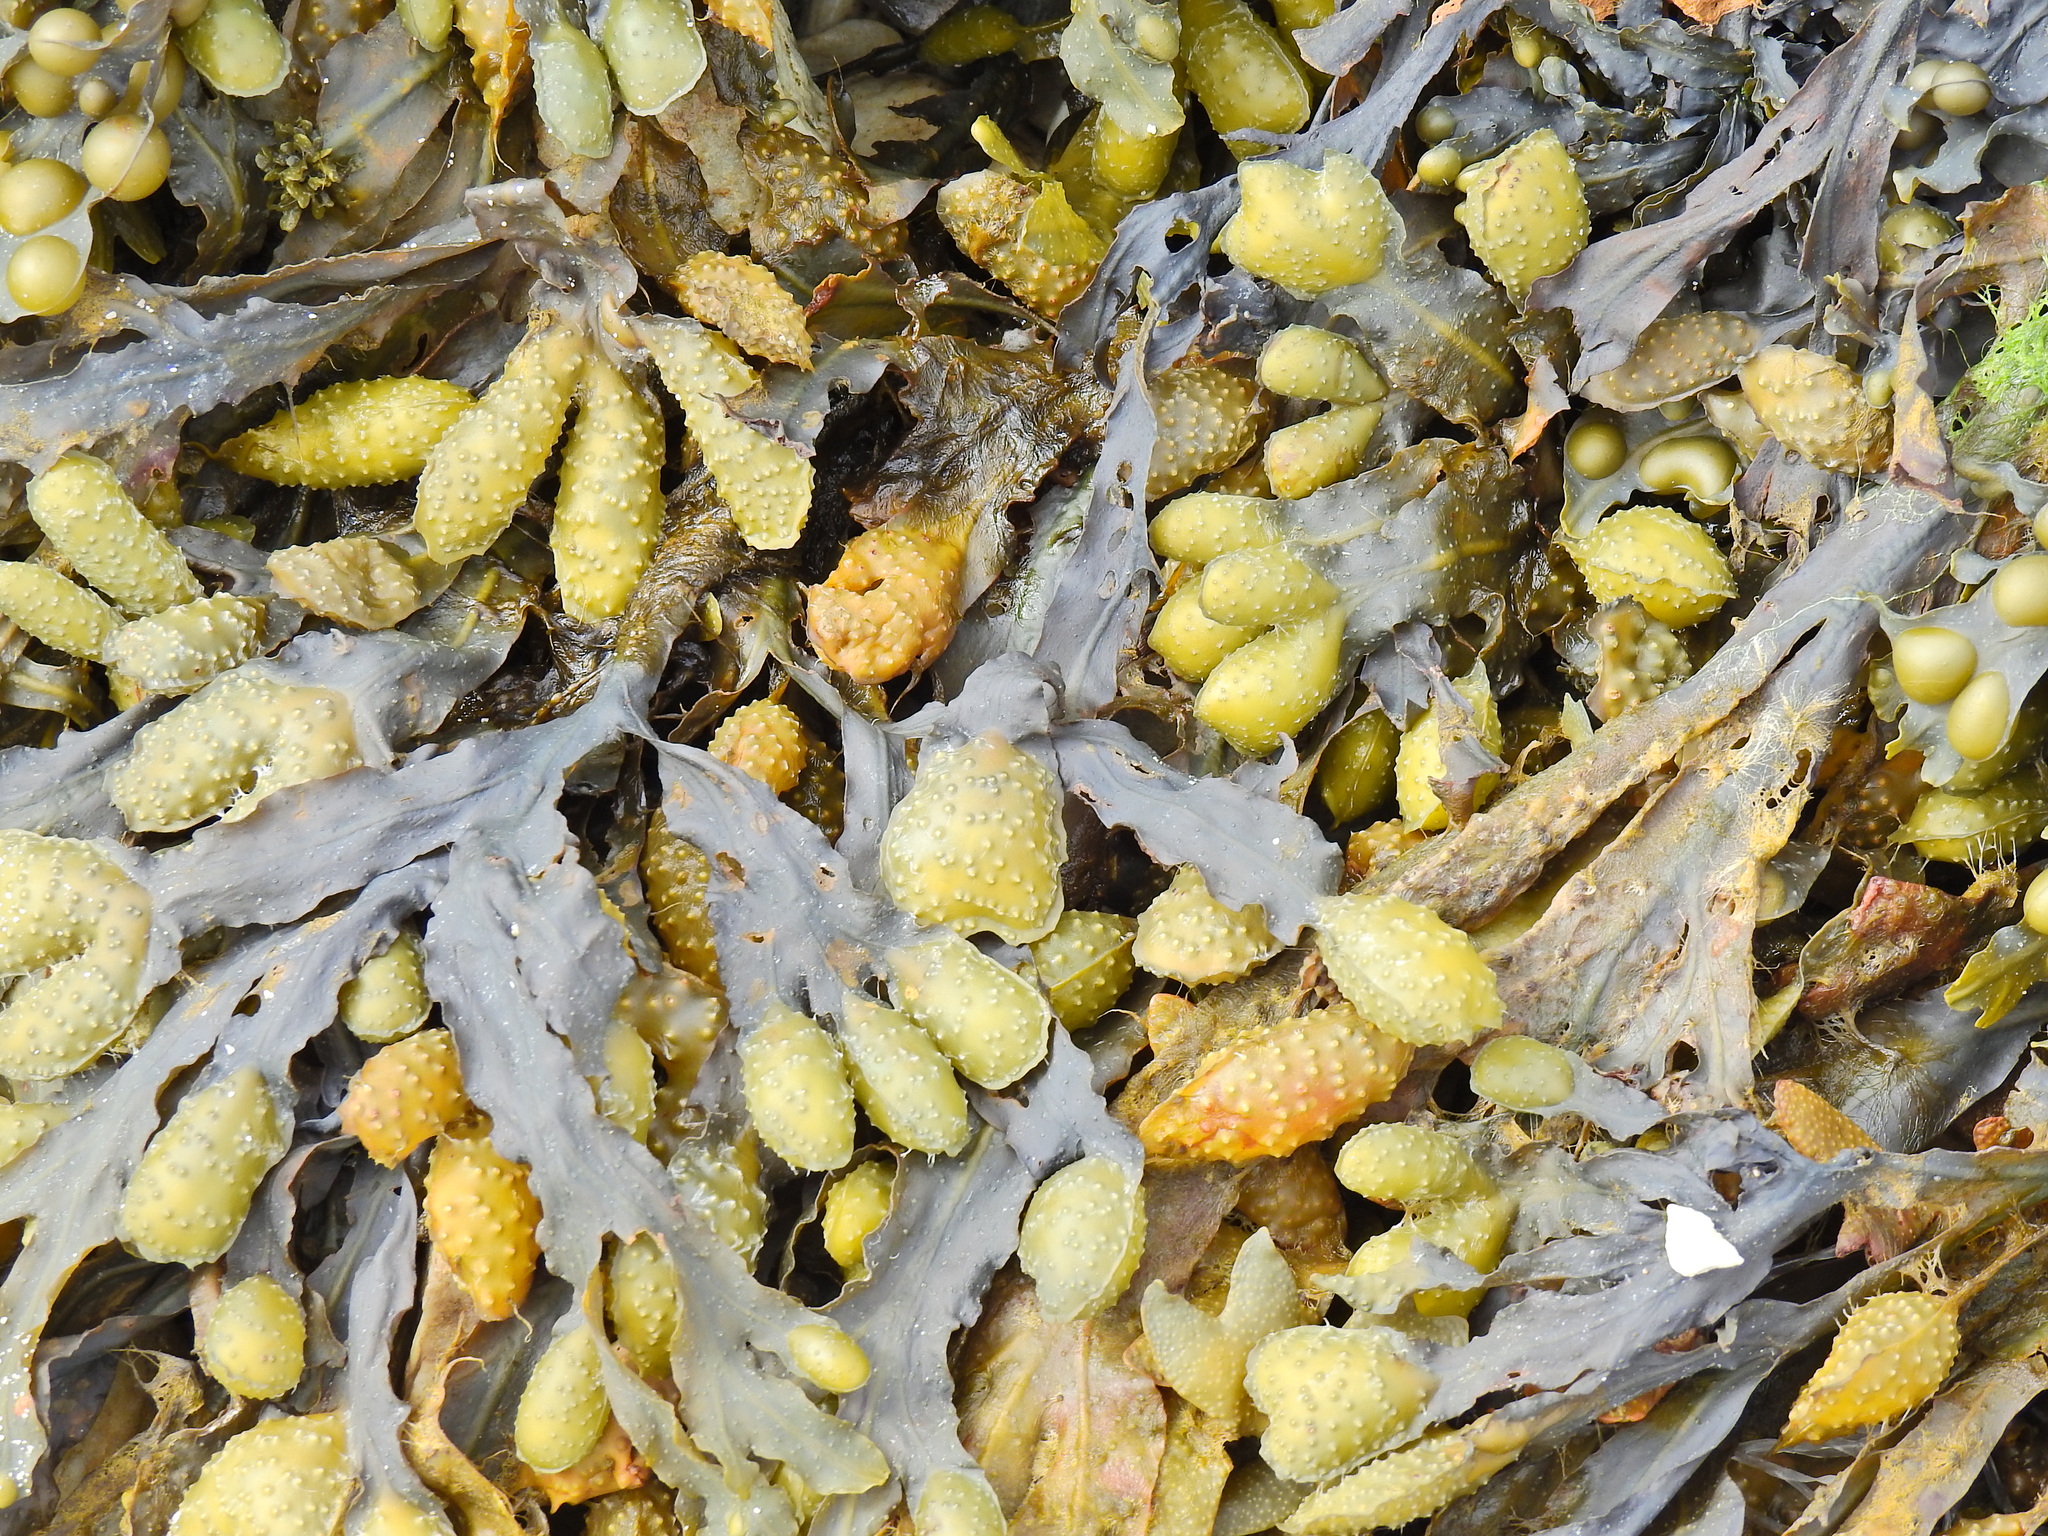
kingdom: Chromista
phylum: Ochrophyta
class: Phaeophyceae
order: Fucales
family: Fucaceae
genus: Fucus
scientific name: Fucus spiralis
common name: Spiral wrack
